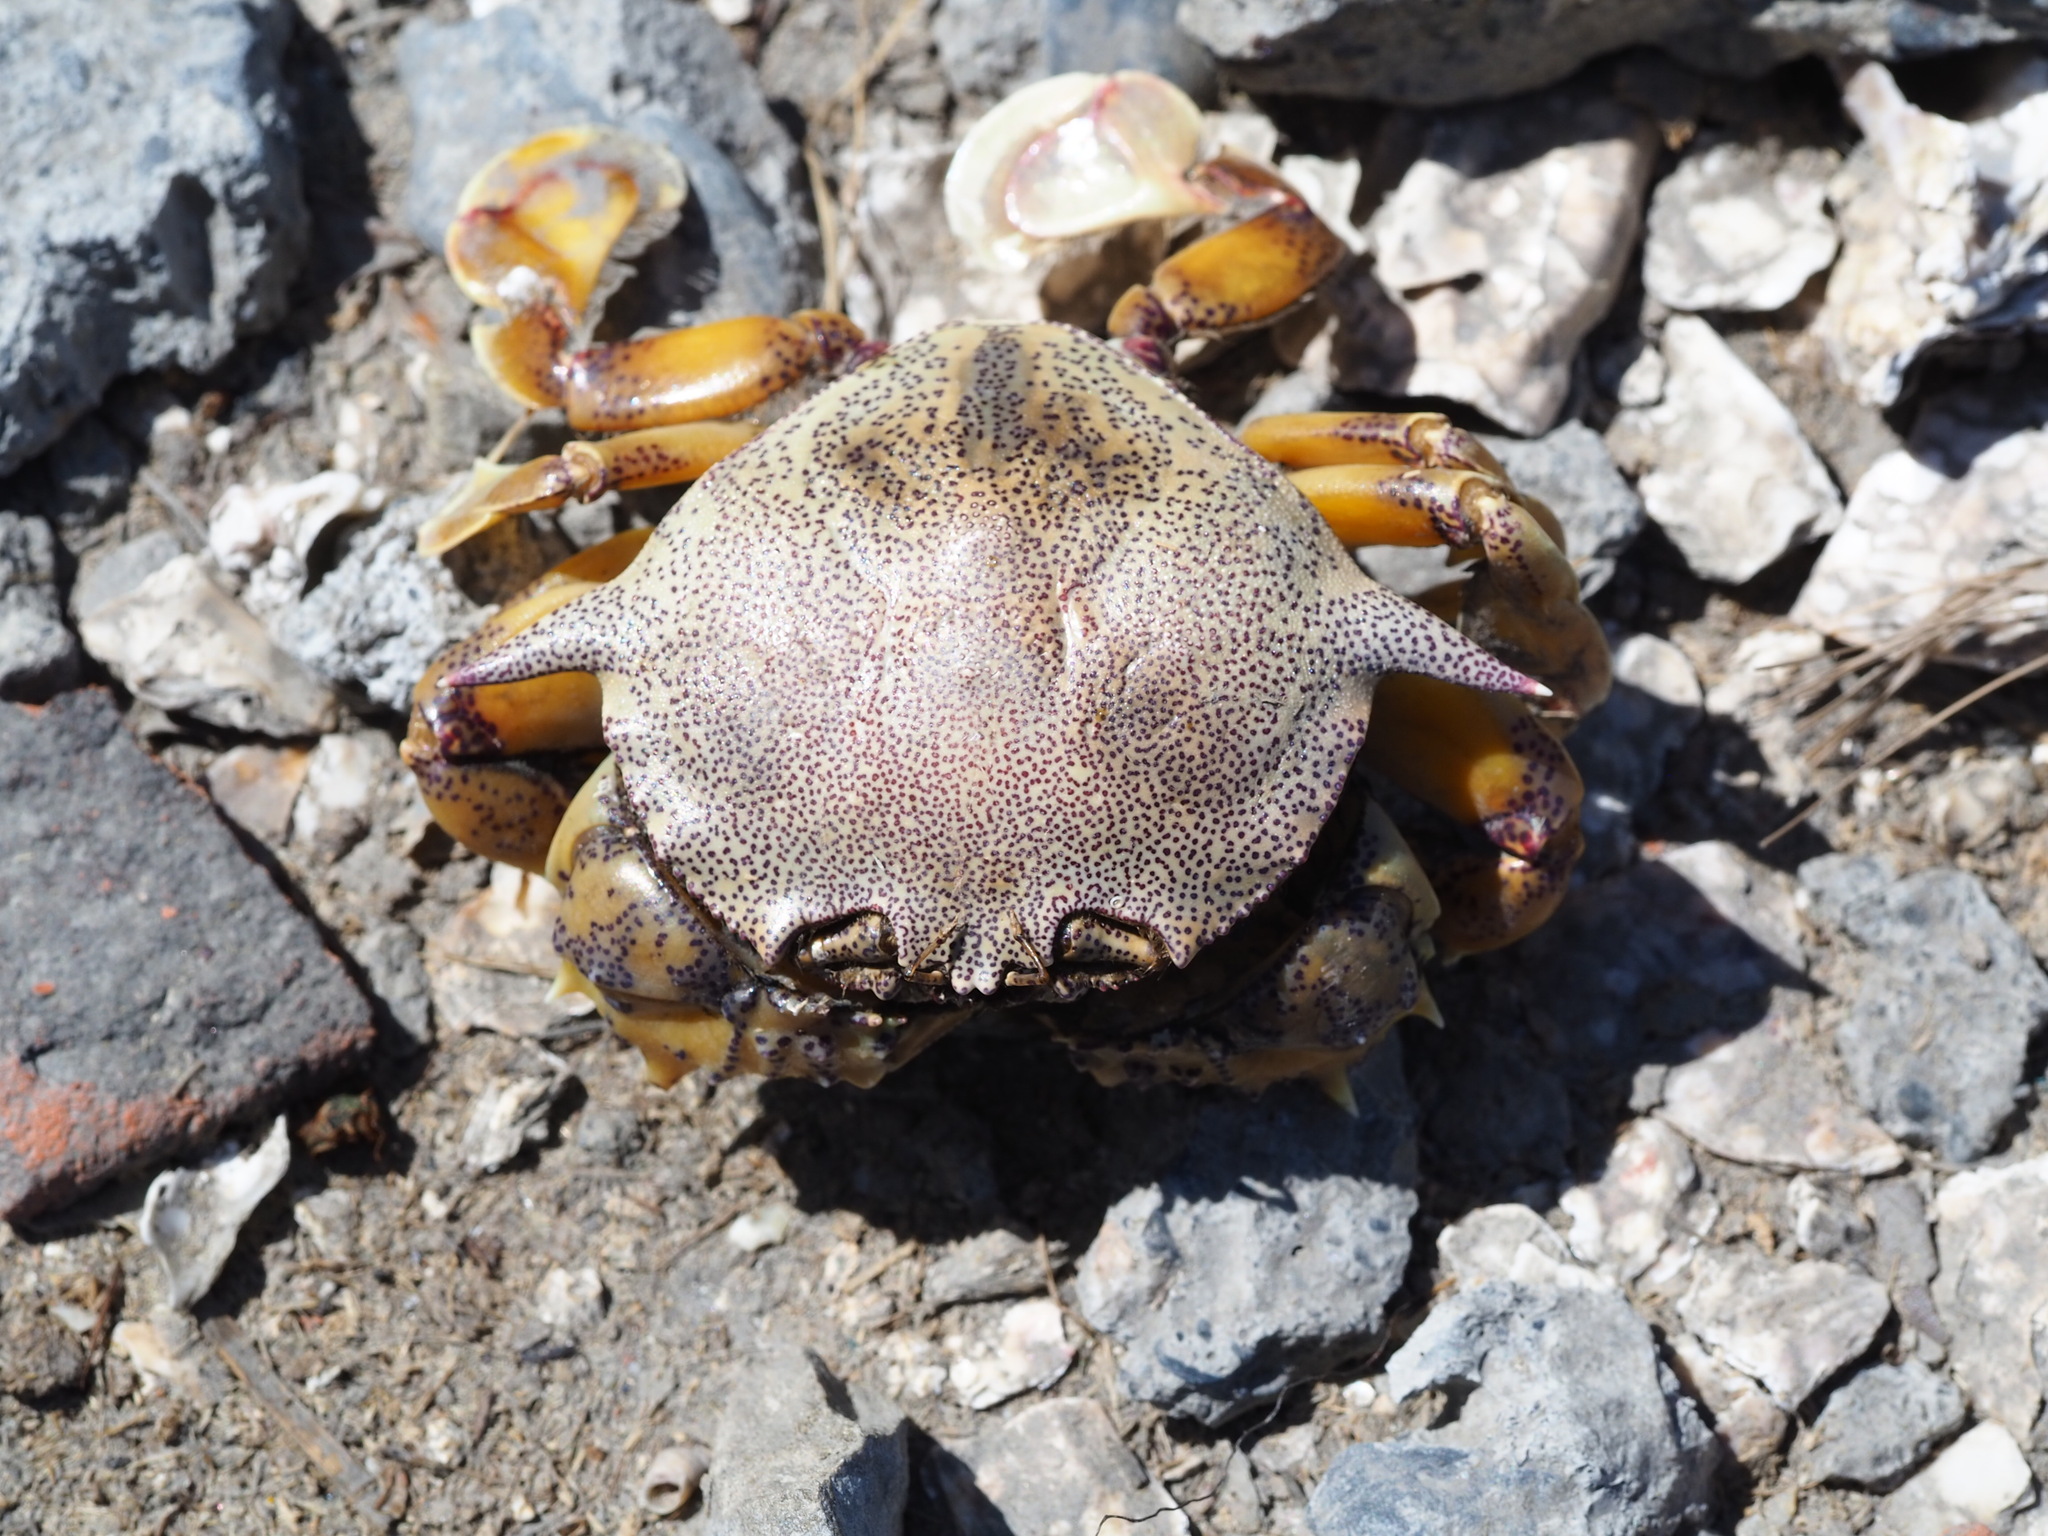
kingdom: Animalia
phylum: Arthropoda
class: Malacostraca
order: Decapoda
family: Matutidae
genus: Matuta
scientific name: Matuta victor
